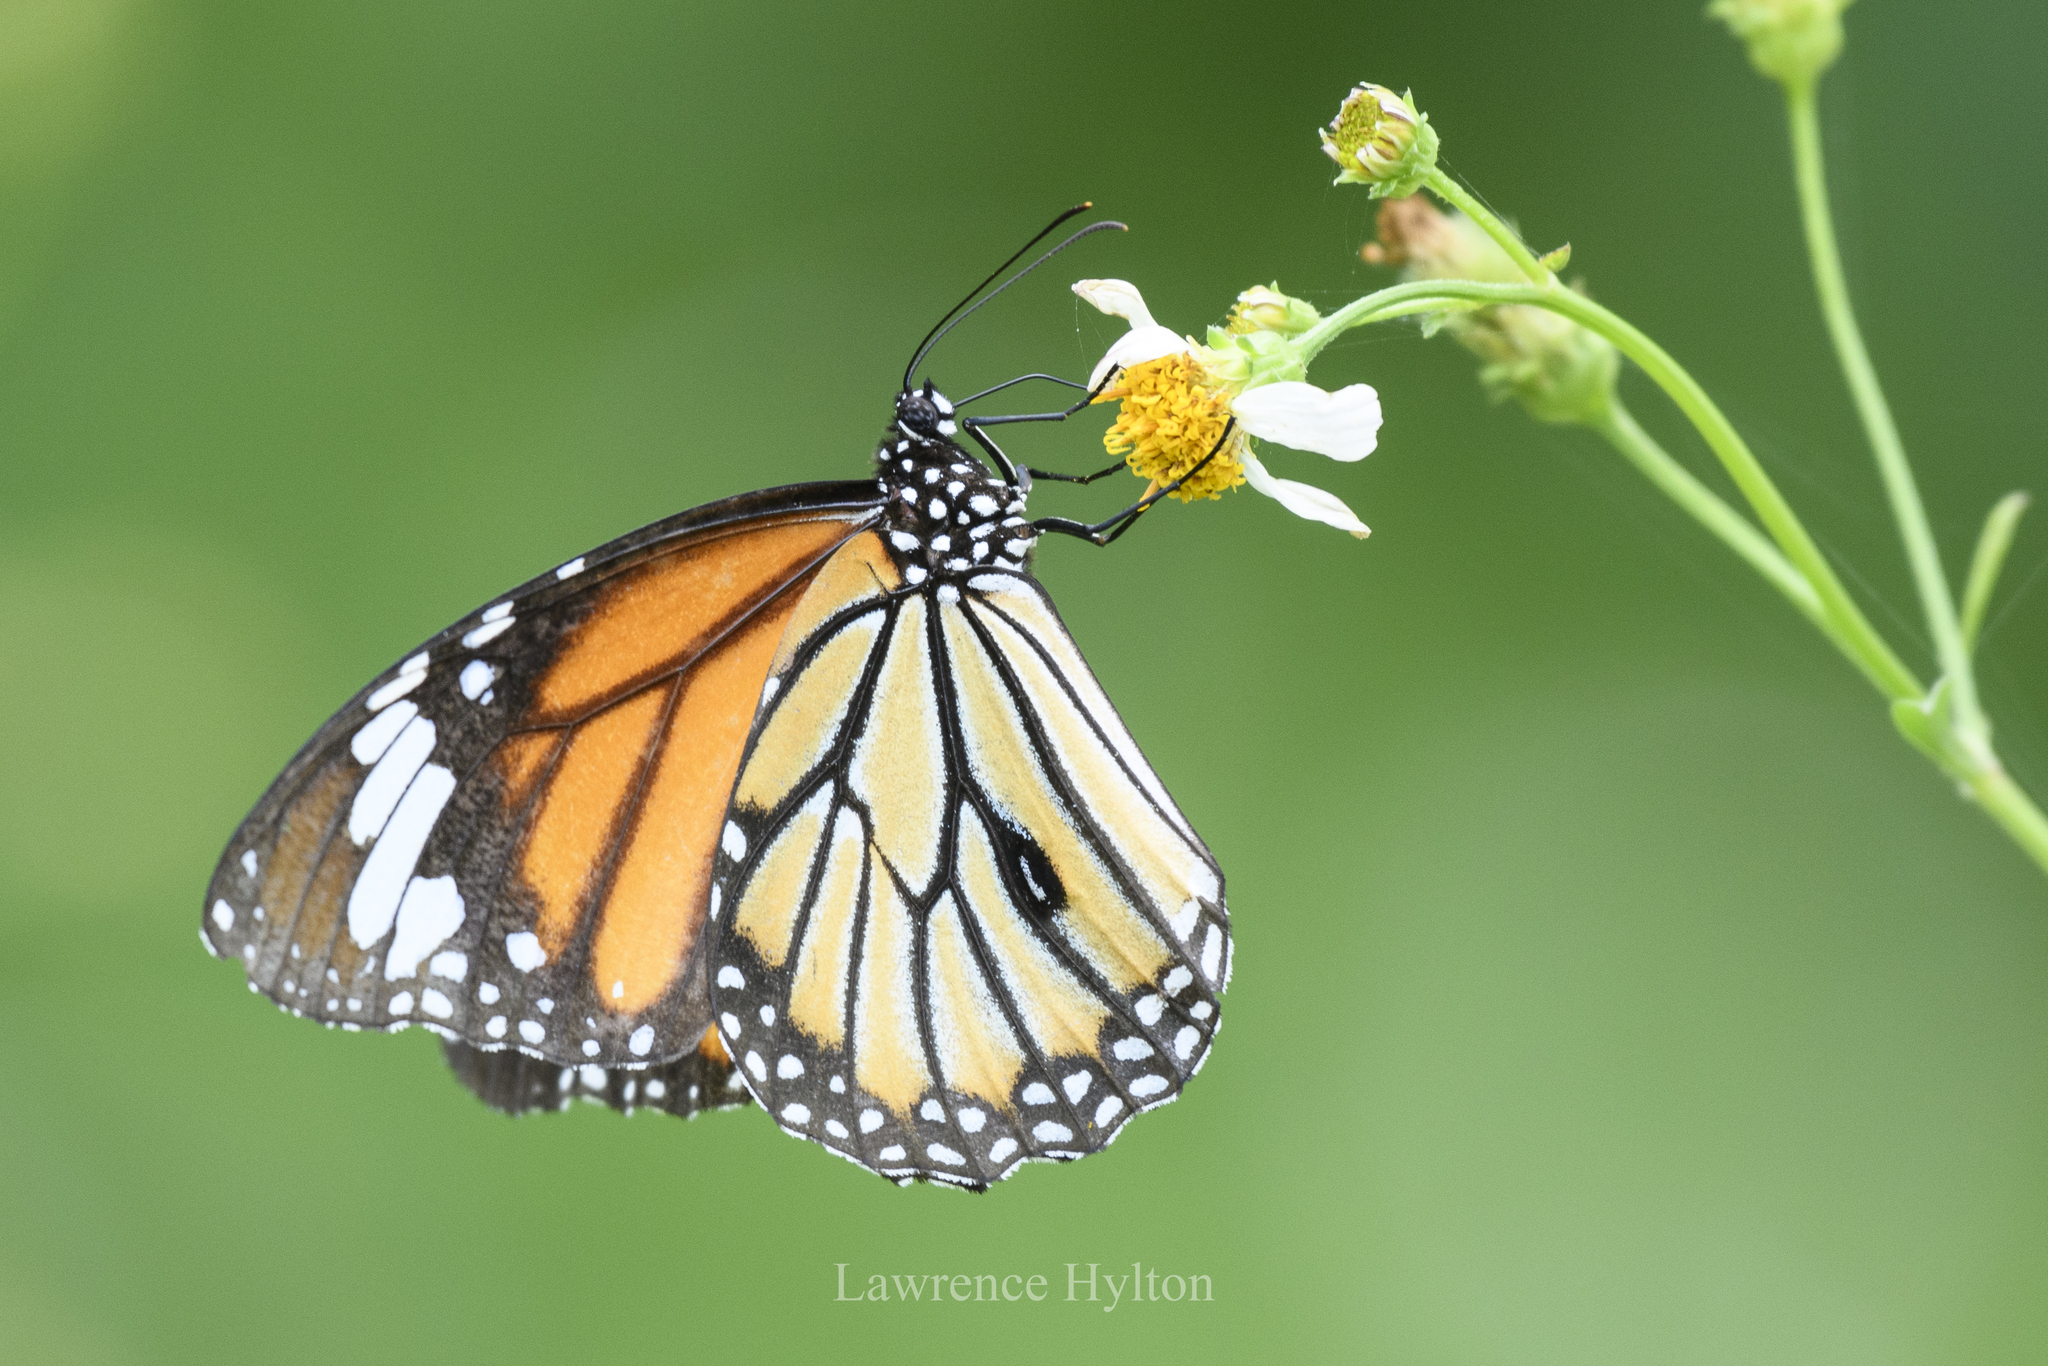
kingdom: Animalia
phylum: Arthropoda
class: Insecta
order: Lepidoptera
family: Nymphalidae
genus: Danaus
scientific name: Danaus genutia
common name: Common tiger butterfly
